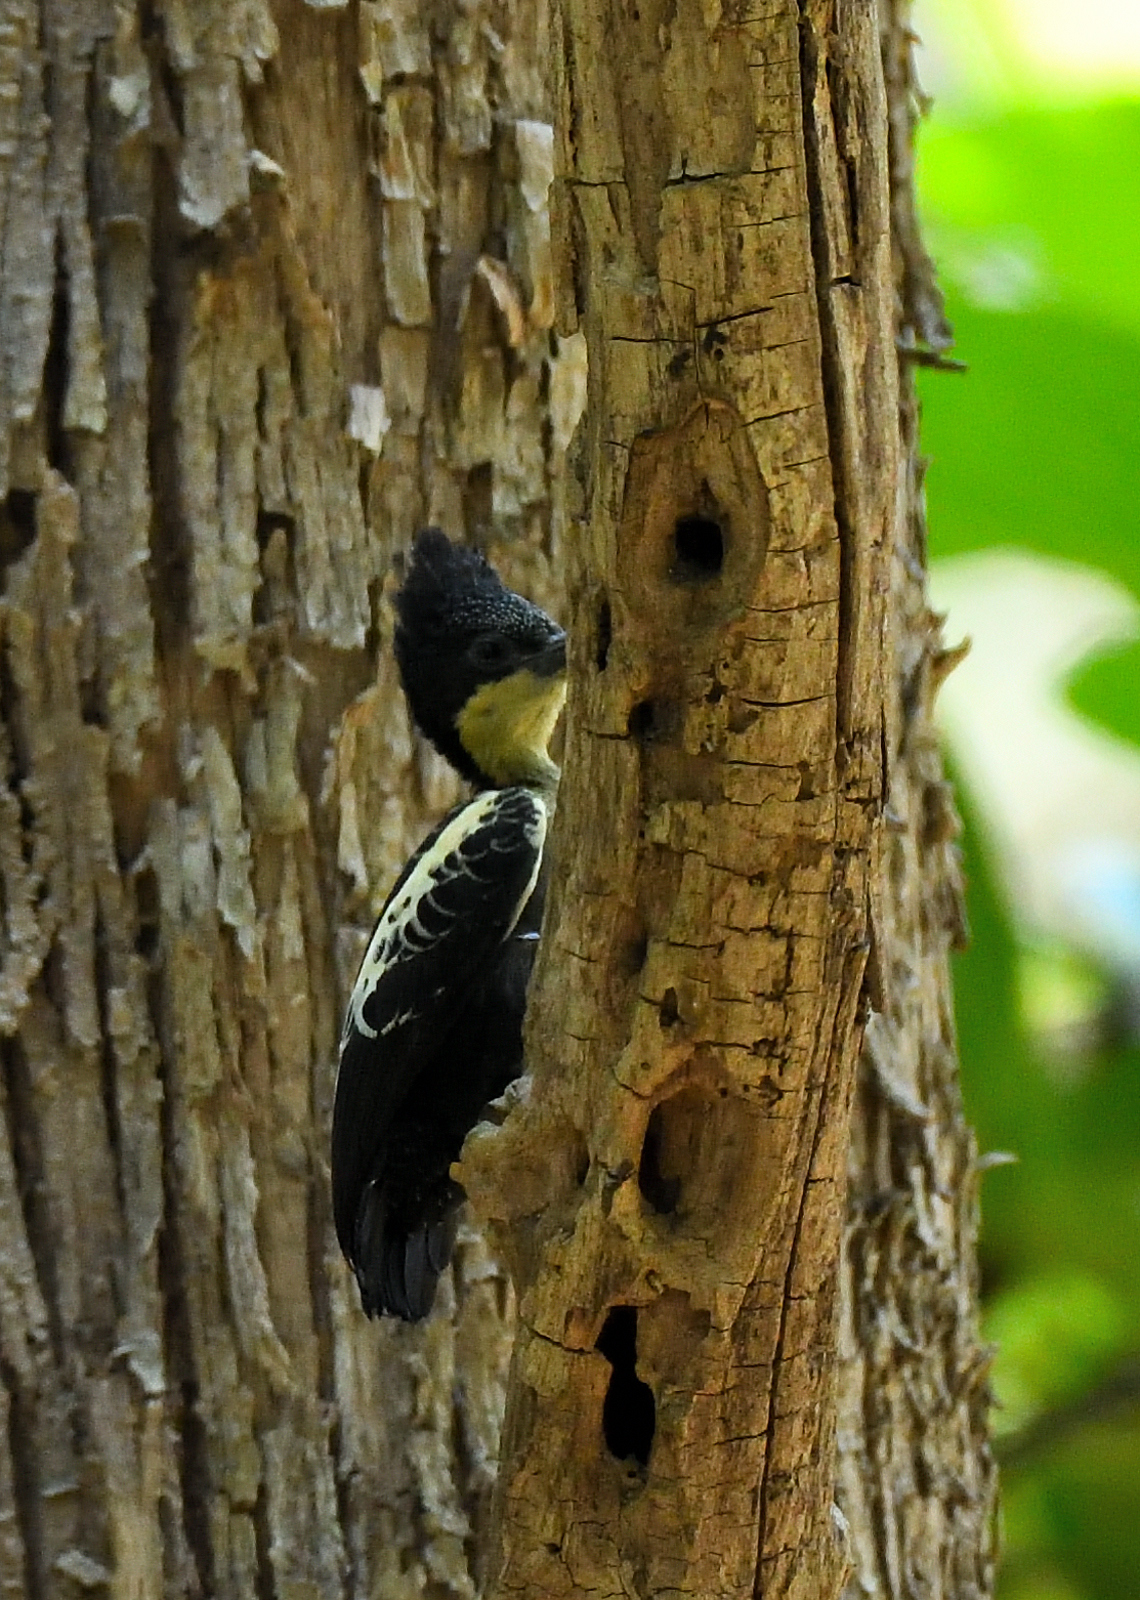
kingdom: Animalia
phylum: Chordata
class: Aves
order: Piciformes
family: Picidae
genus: Hemicircus
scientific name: Hemicircus canente
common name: Heart-spotted woodpecker
